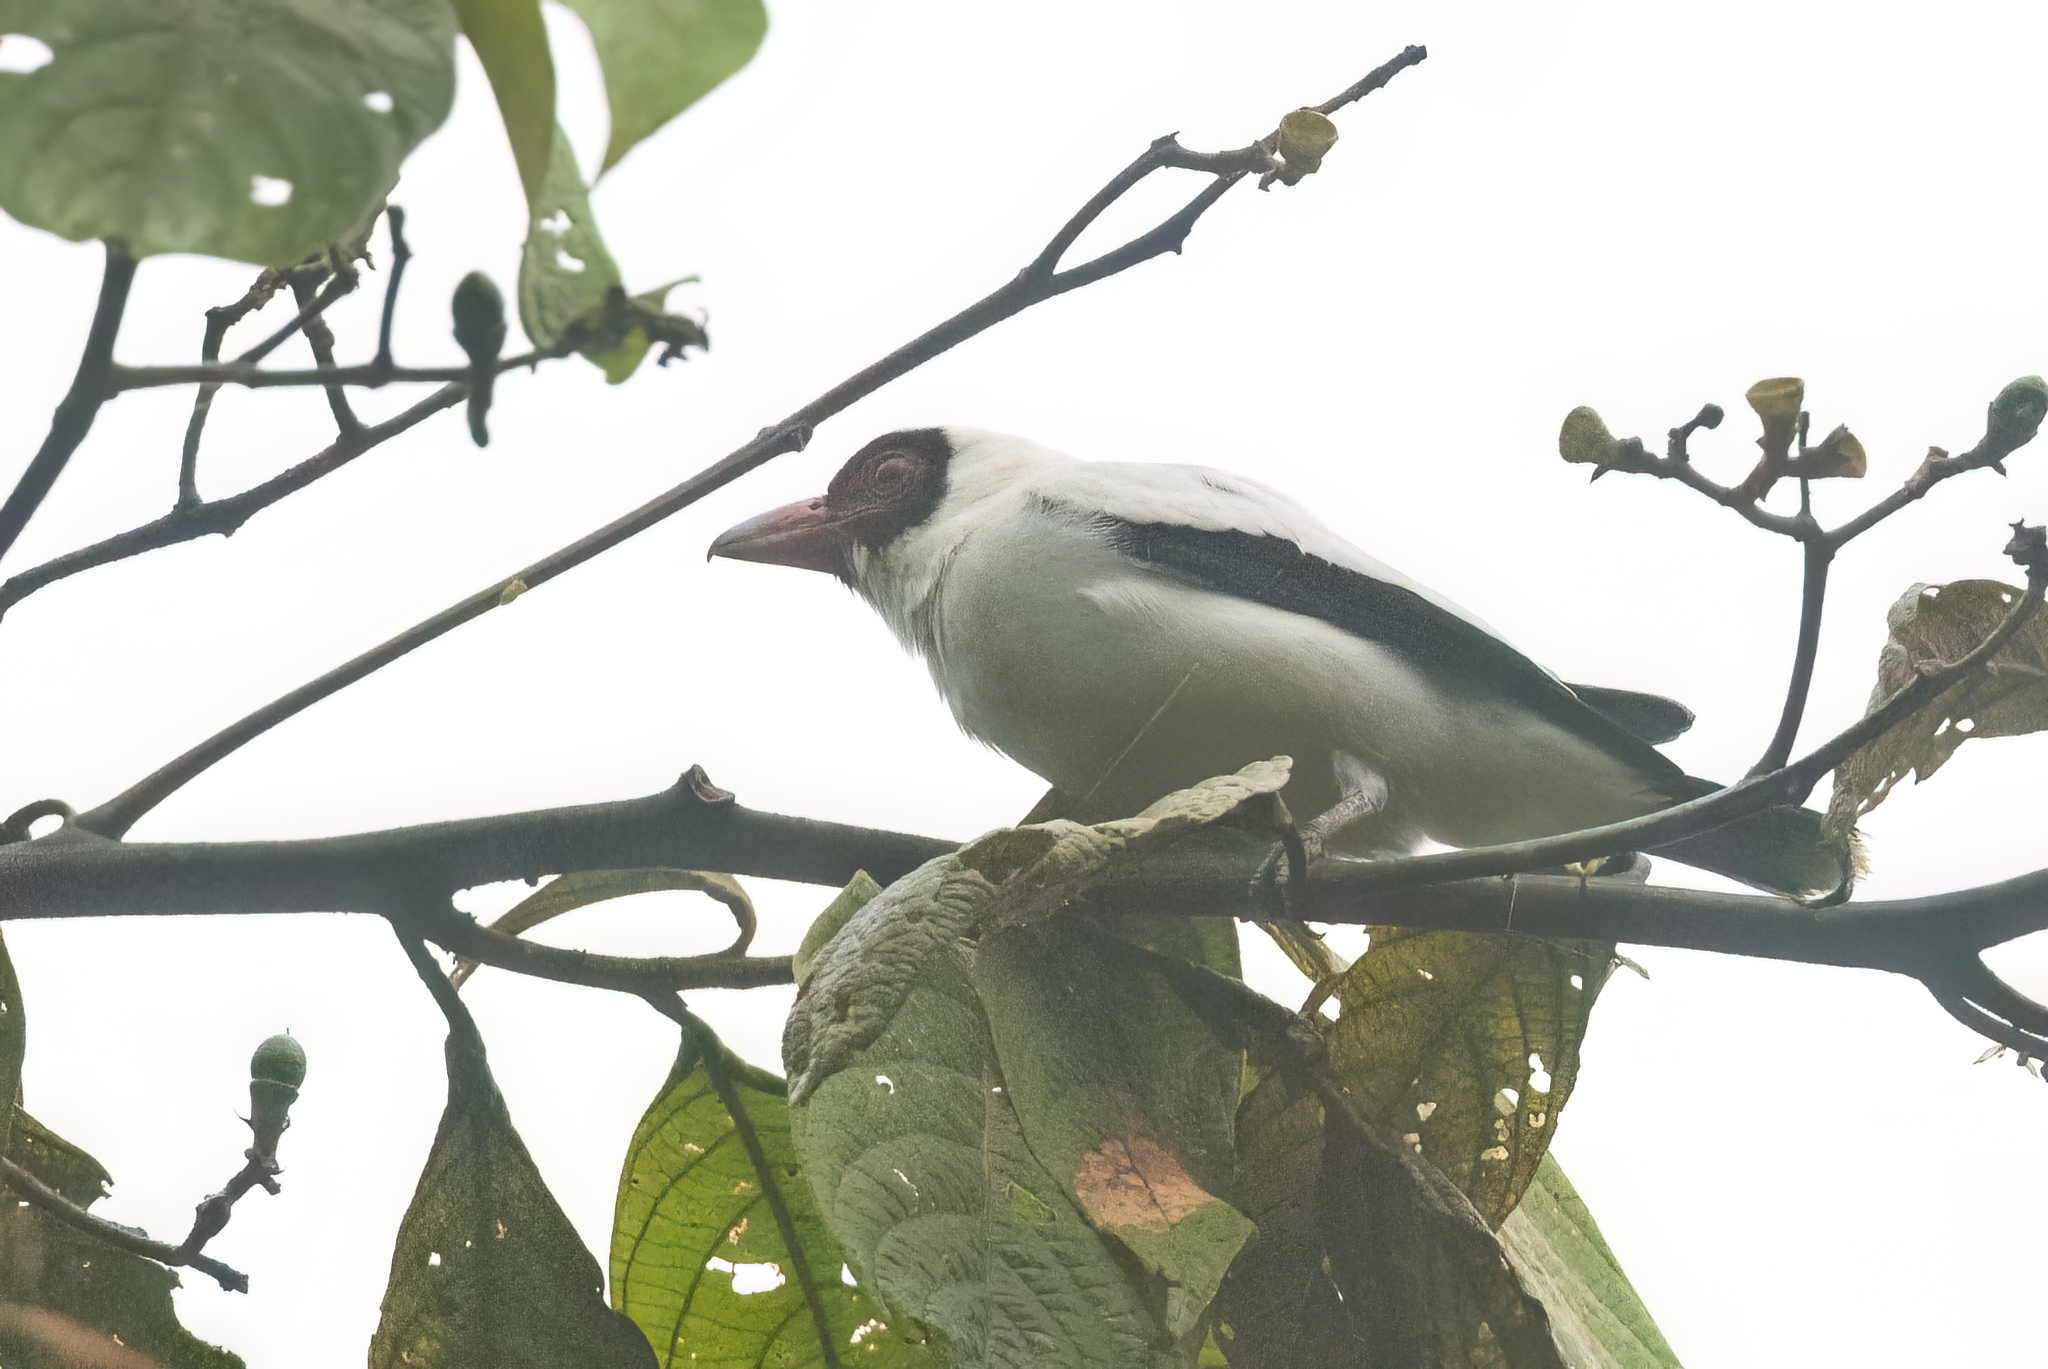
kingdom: Animalia
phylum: Chordata
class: Aves
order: Passeriformes
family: Cotingidae
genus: Tityra
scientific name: Tityra semifasciata
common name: Masked tityra
